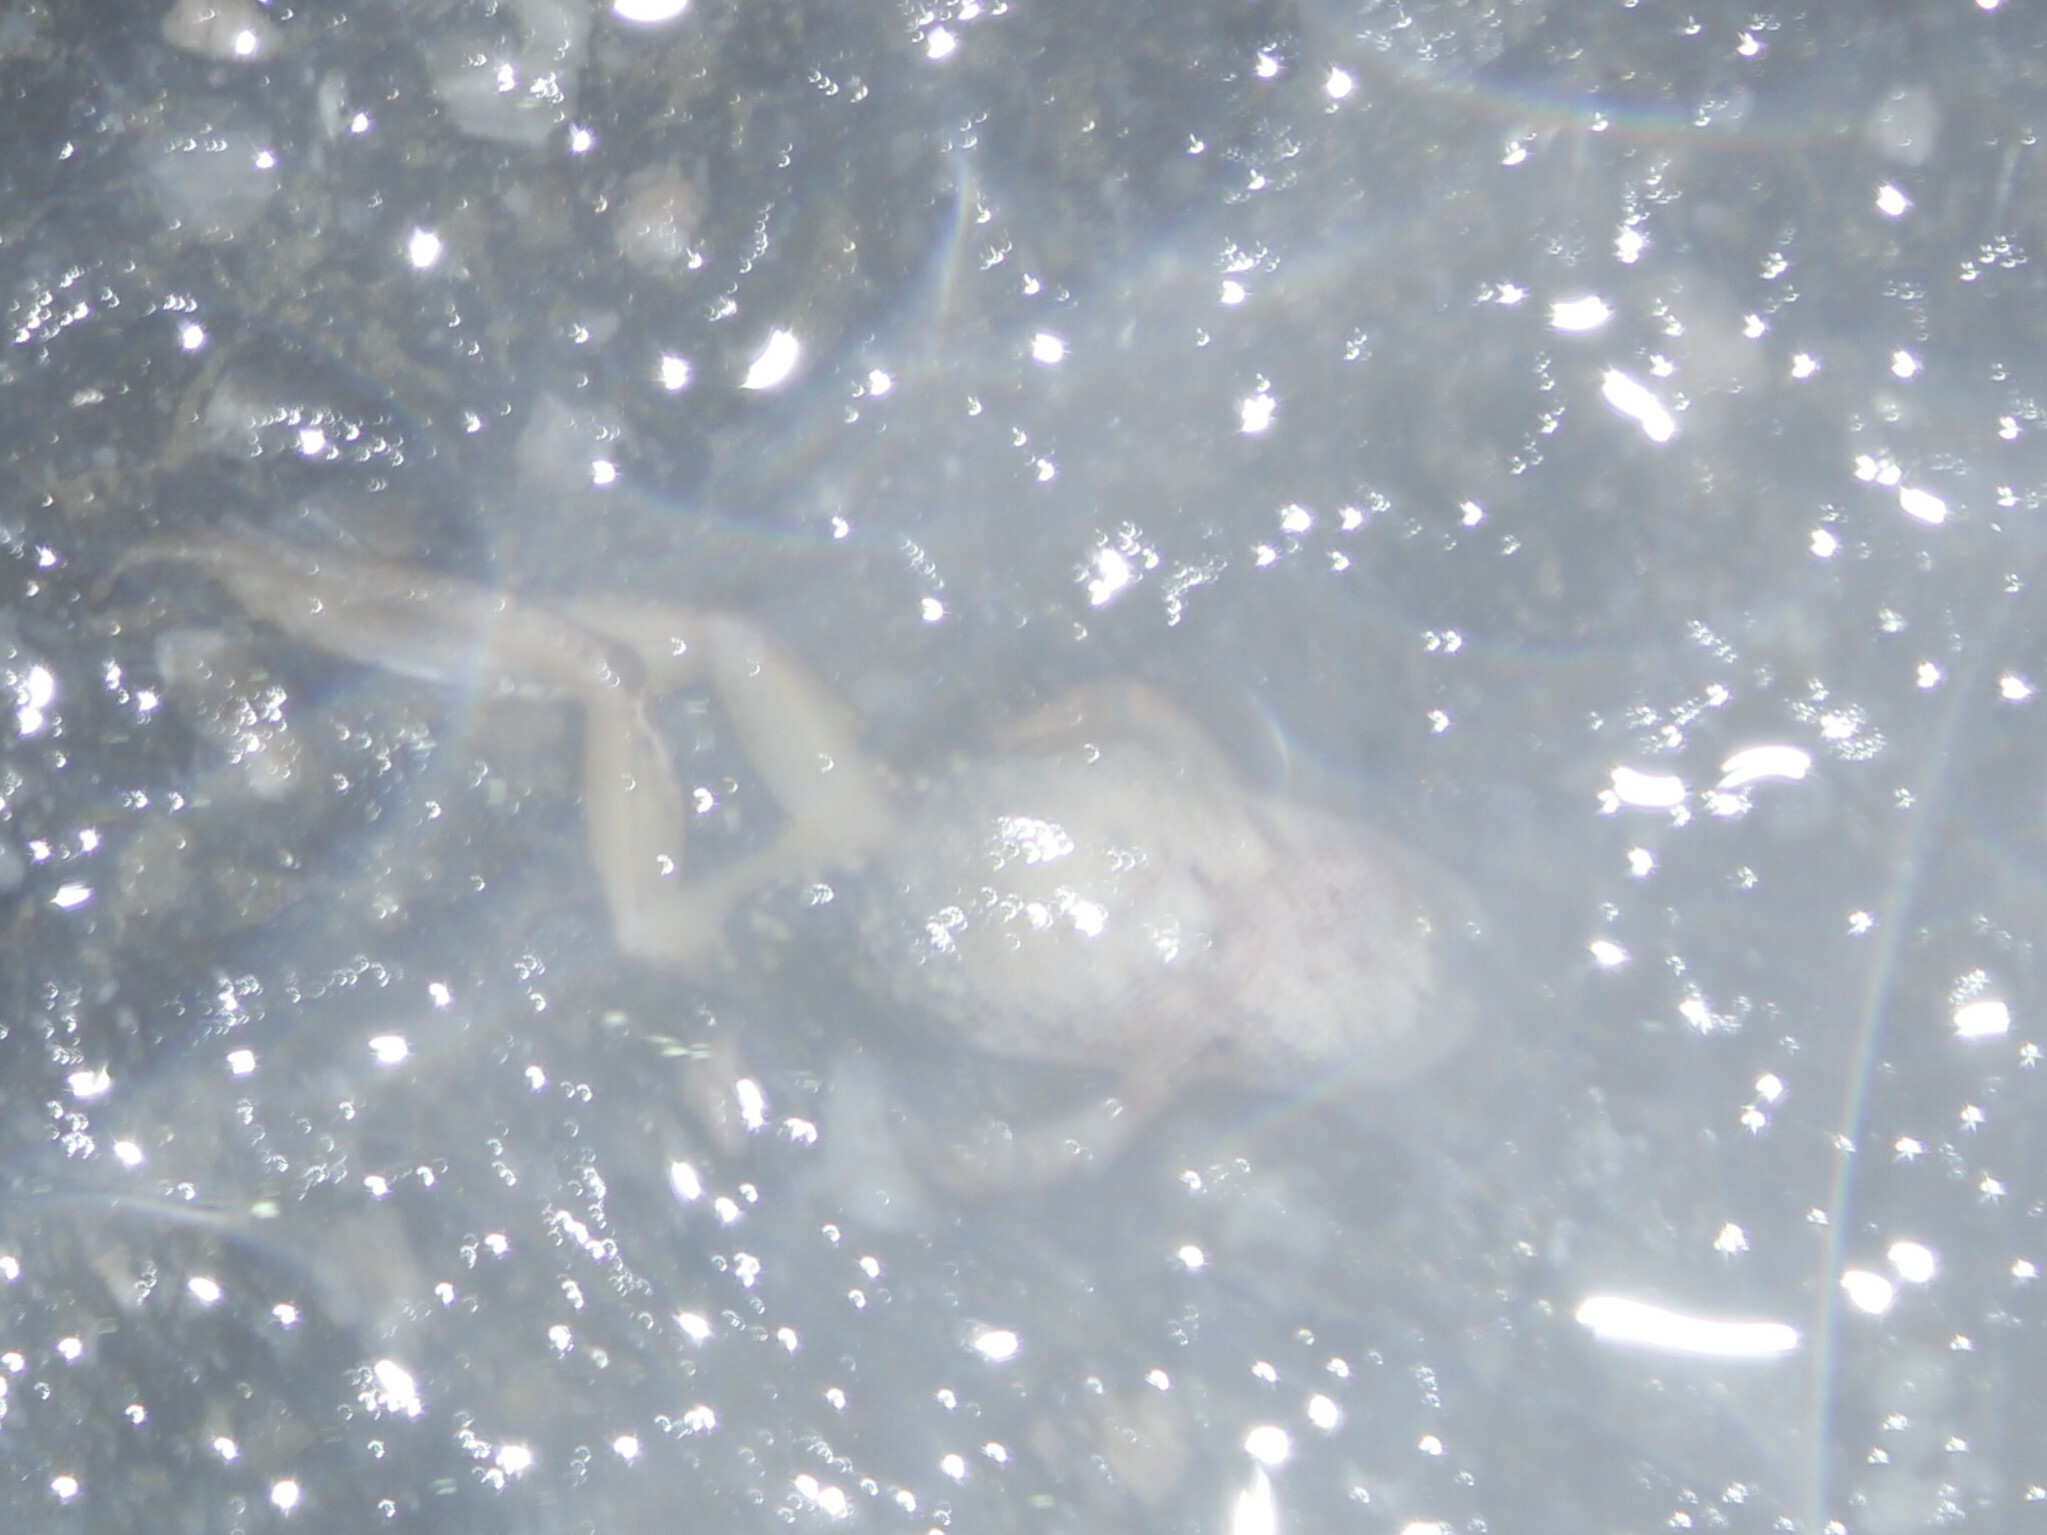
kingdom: Animalia
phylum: Chordata
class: Amphibia
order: Anura
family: Hylidae
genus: Pseudacris
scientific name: Pseudacris crucifer
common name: Spring peeper
